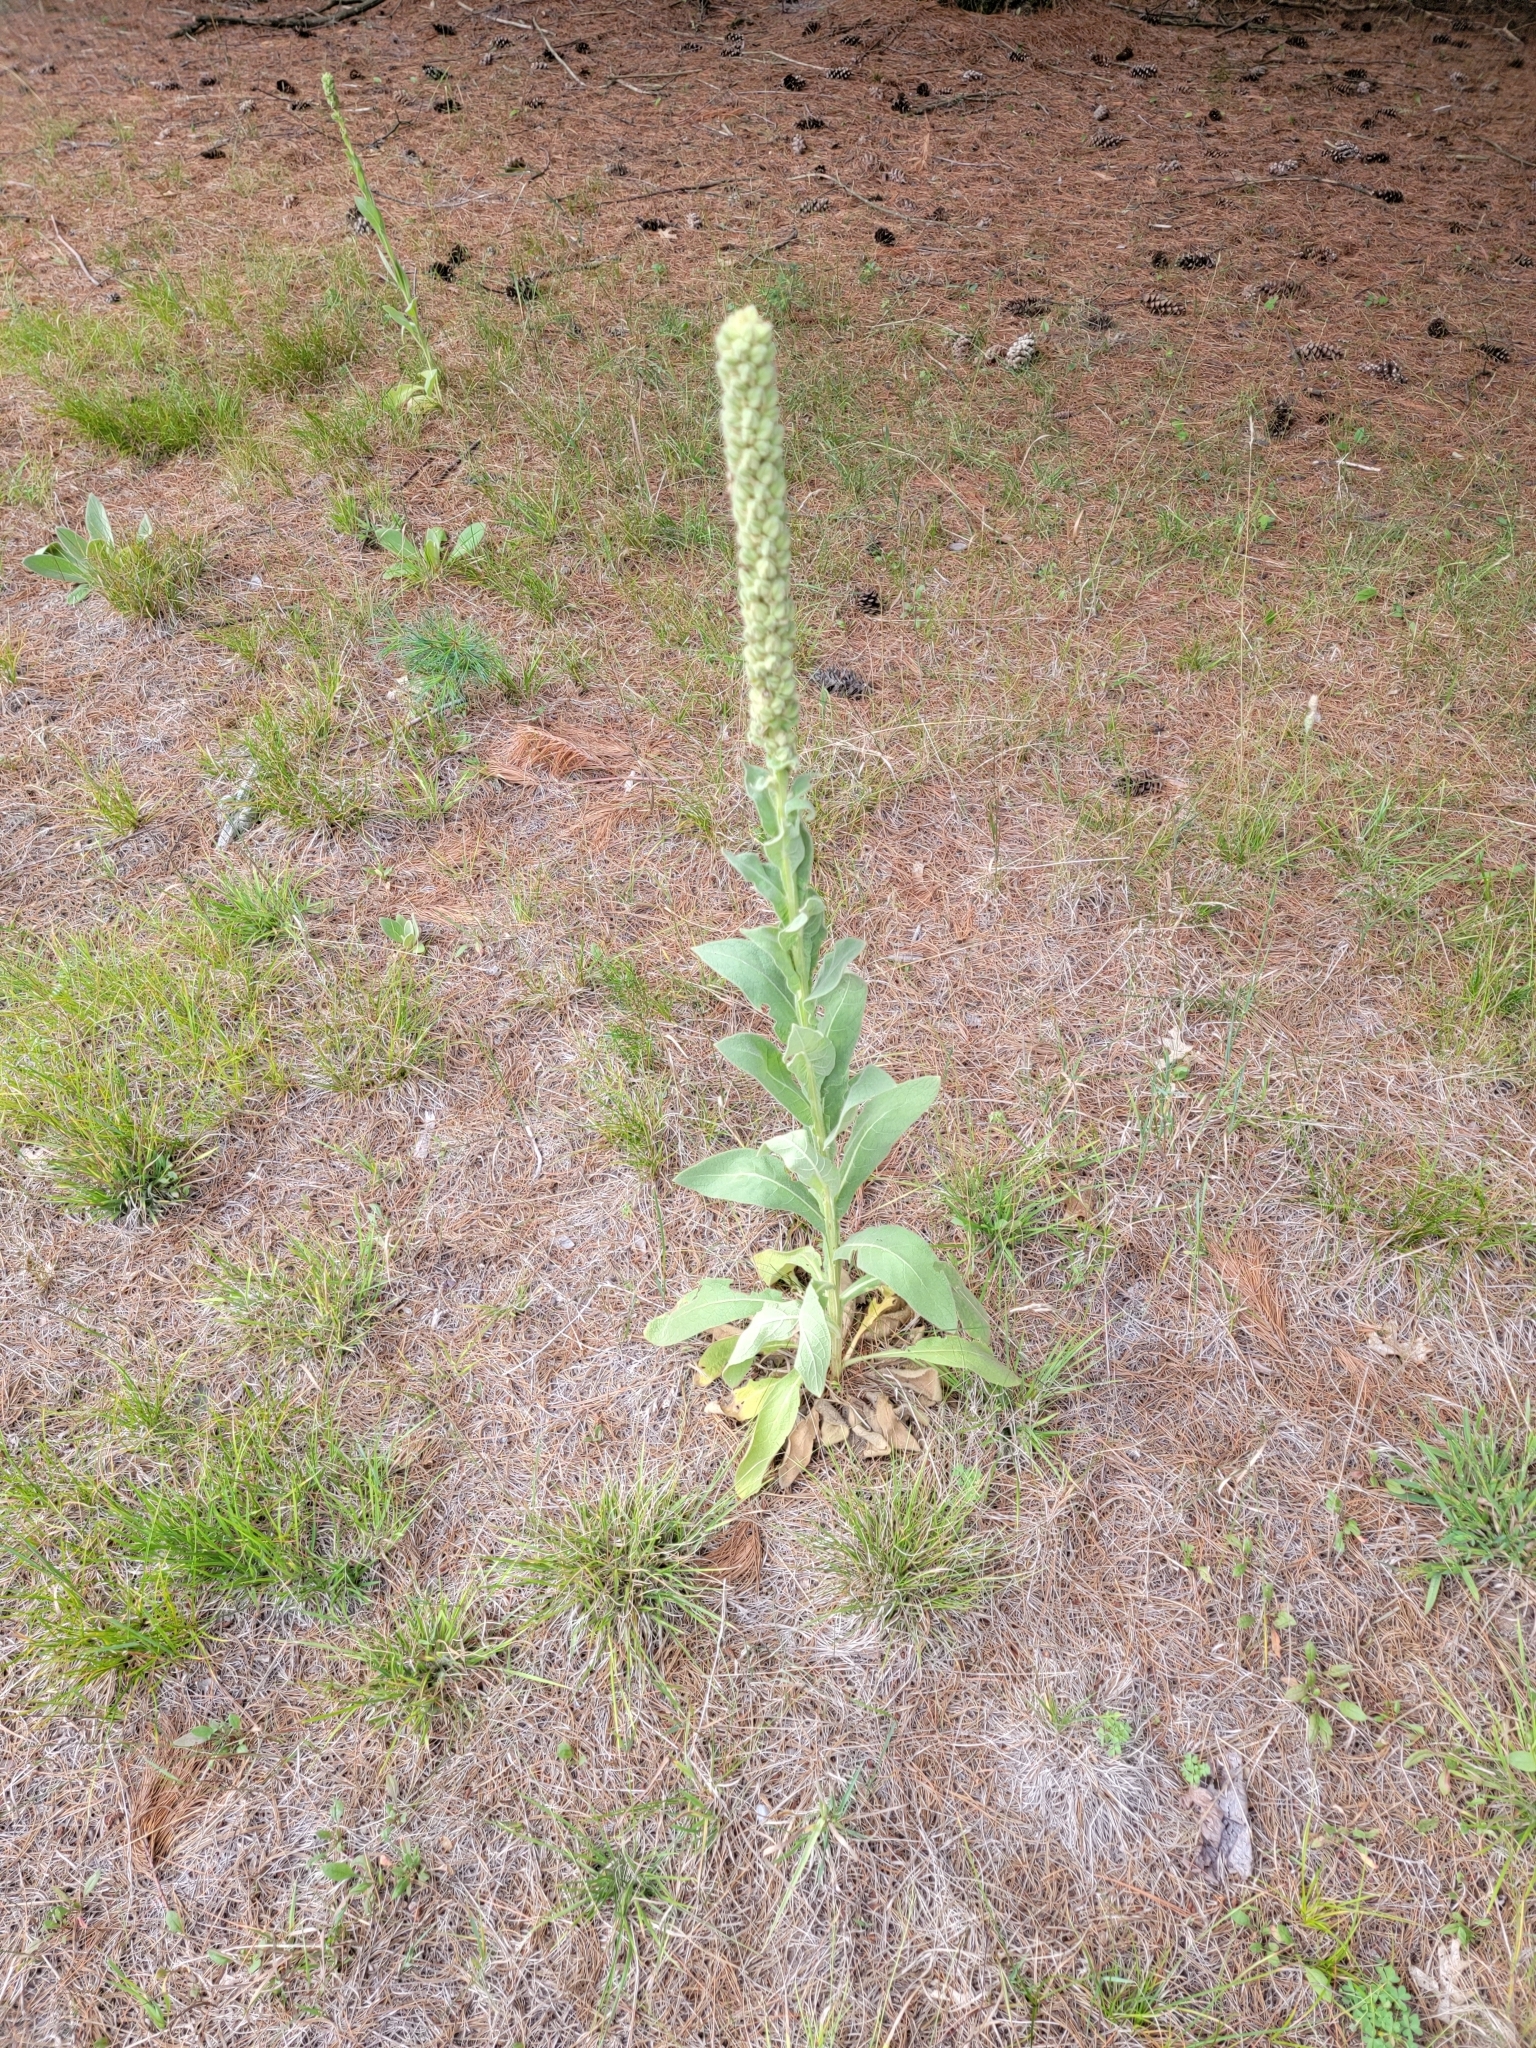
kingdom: Plantae
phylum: Tracheophyta
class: Magnoliopsida
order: Lamiales
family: Scrophulariaceae
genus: Verbascum
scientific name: Verbascum thapsus
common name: Common mullein
